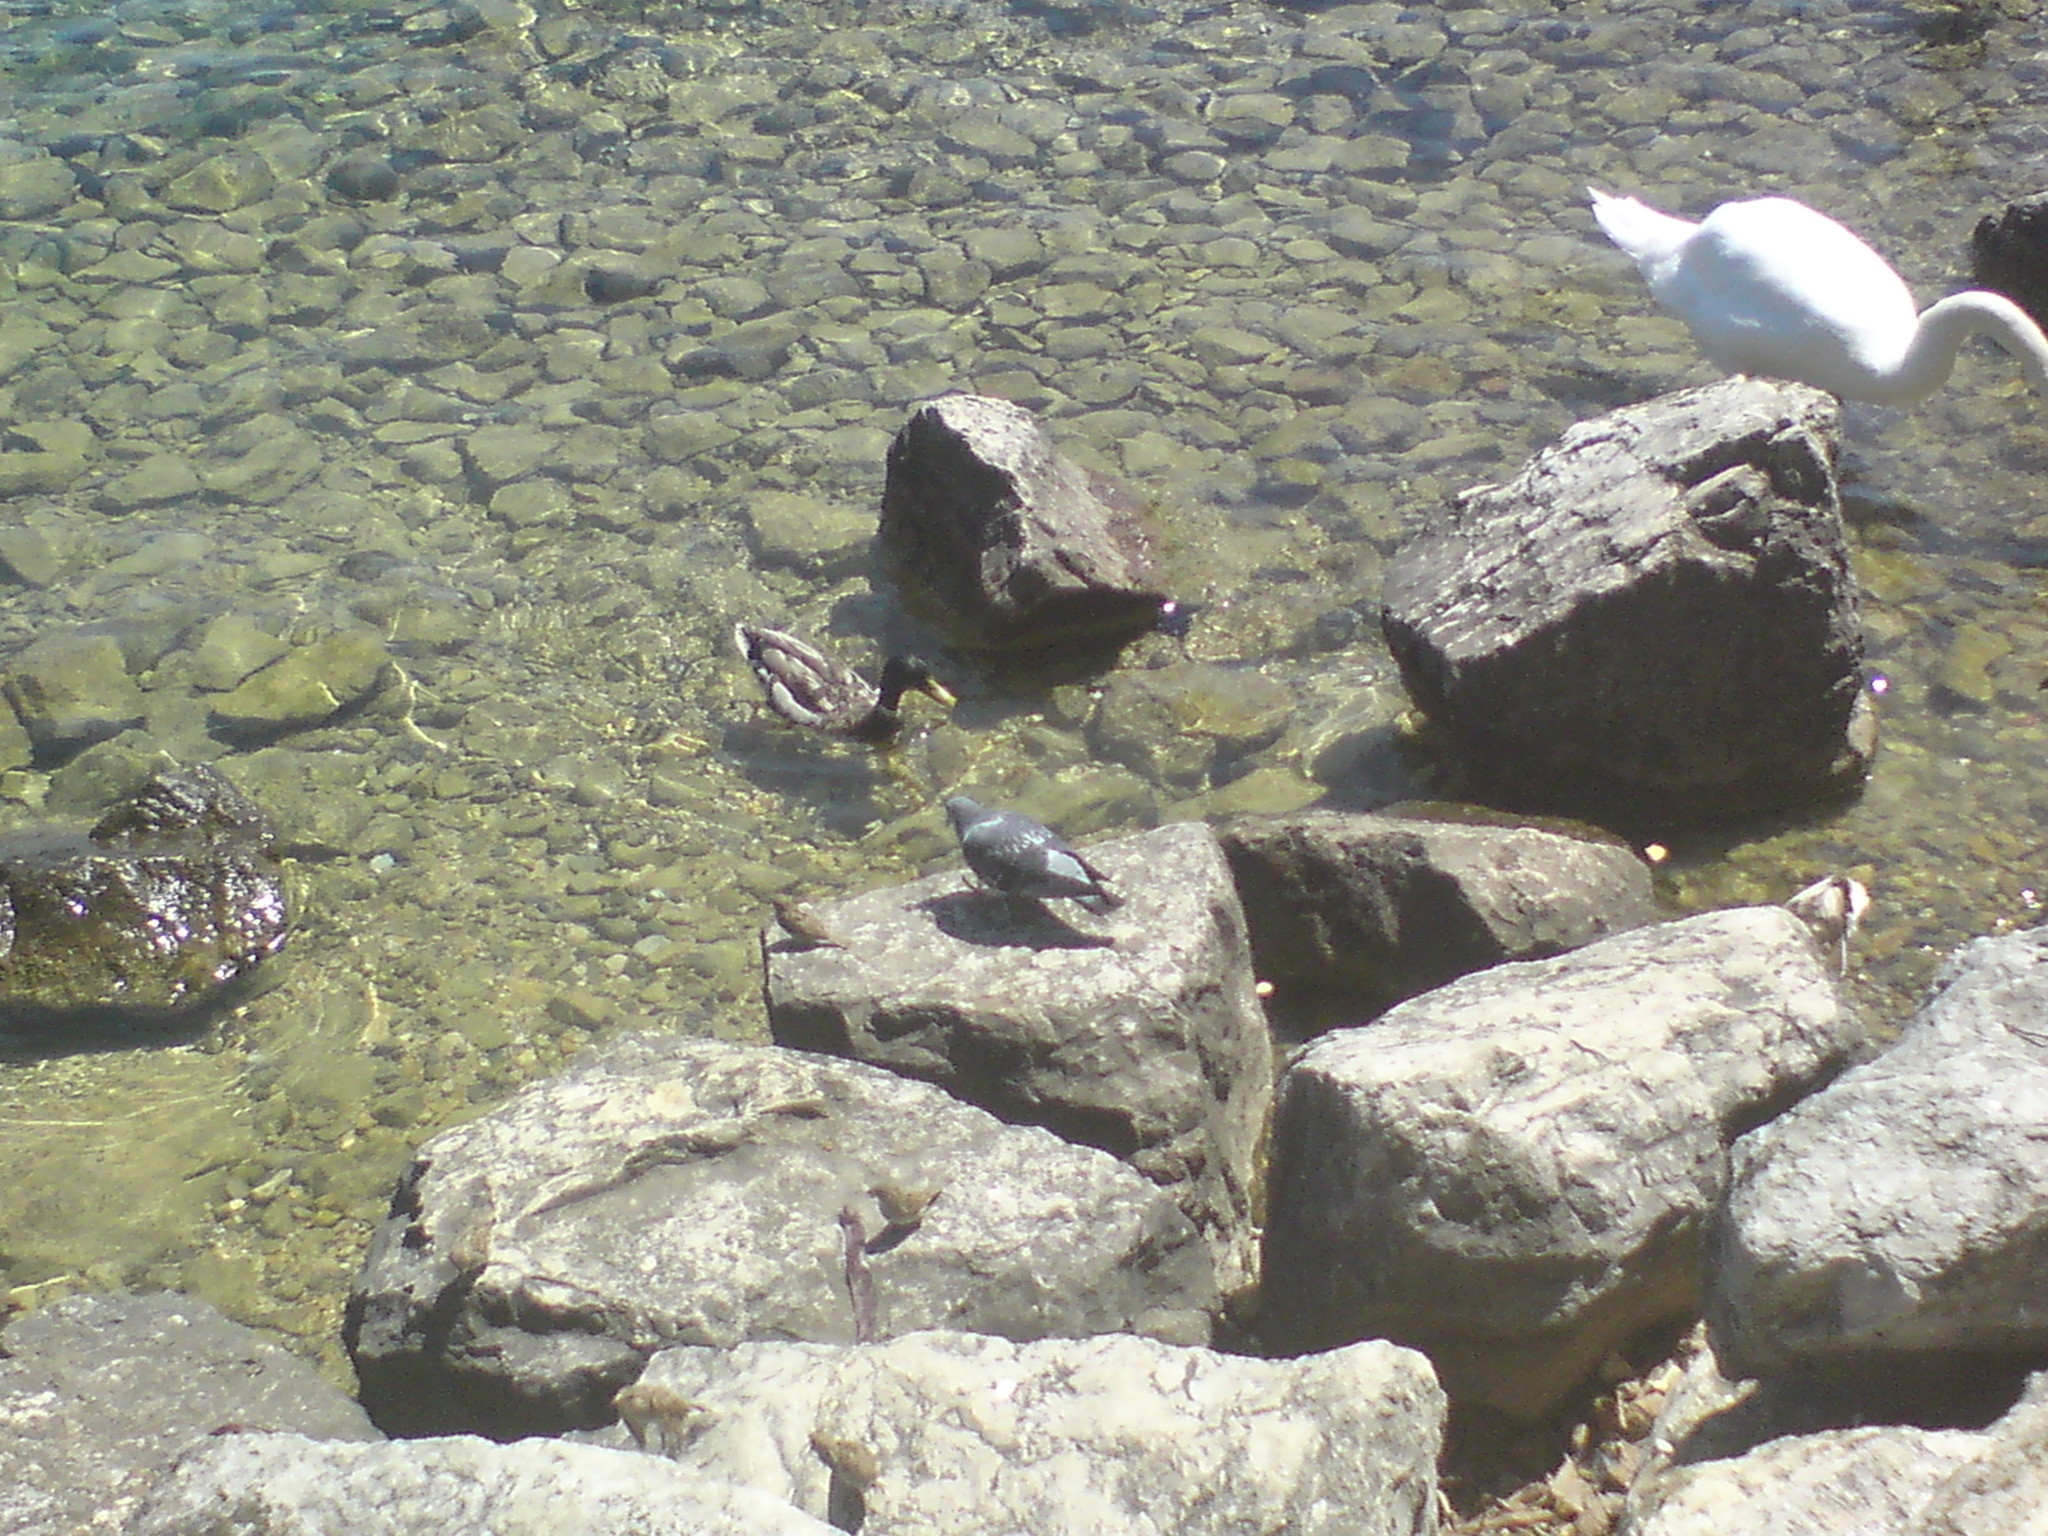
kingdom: Animalia
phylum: Chordata
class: Aves
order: Columbiformes
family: Columbidae
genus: Columba
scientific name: Columba livia
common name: Rock pigeon
